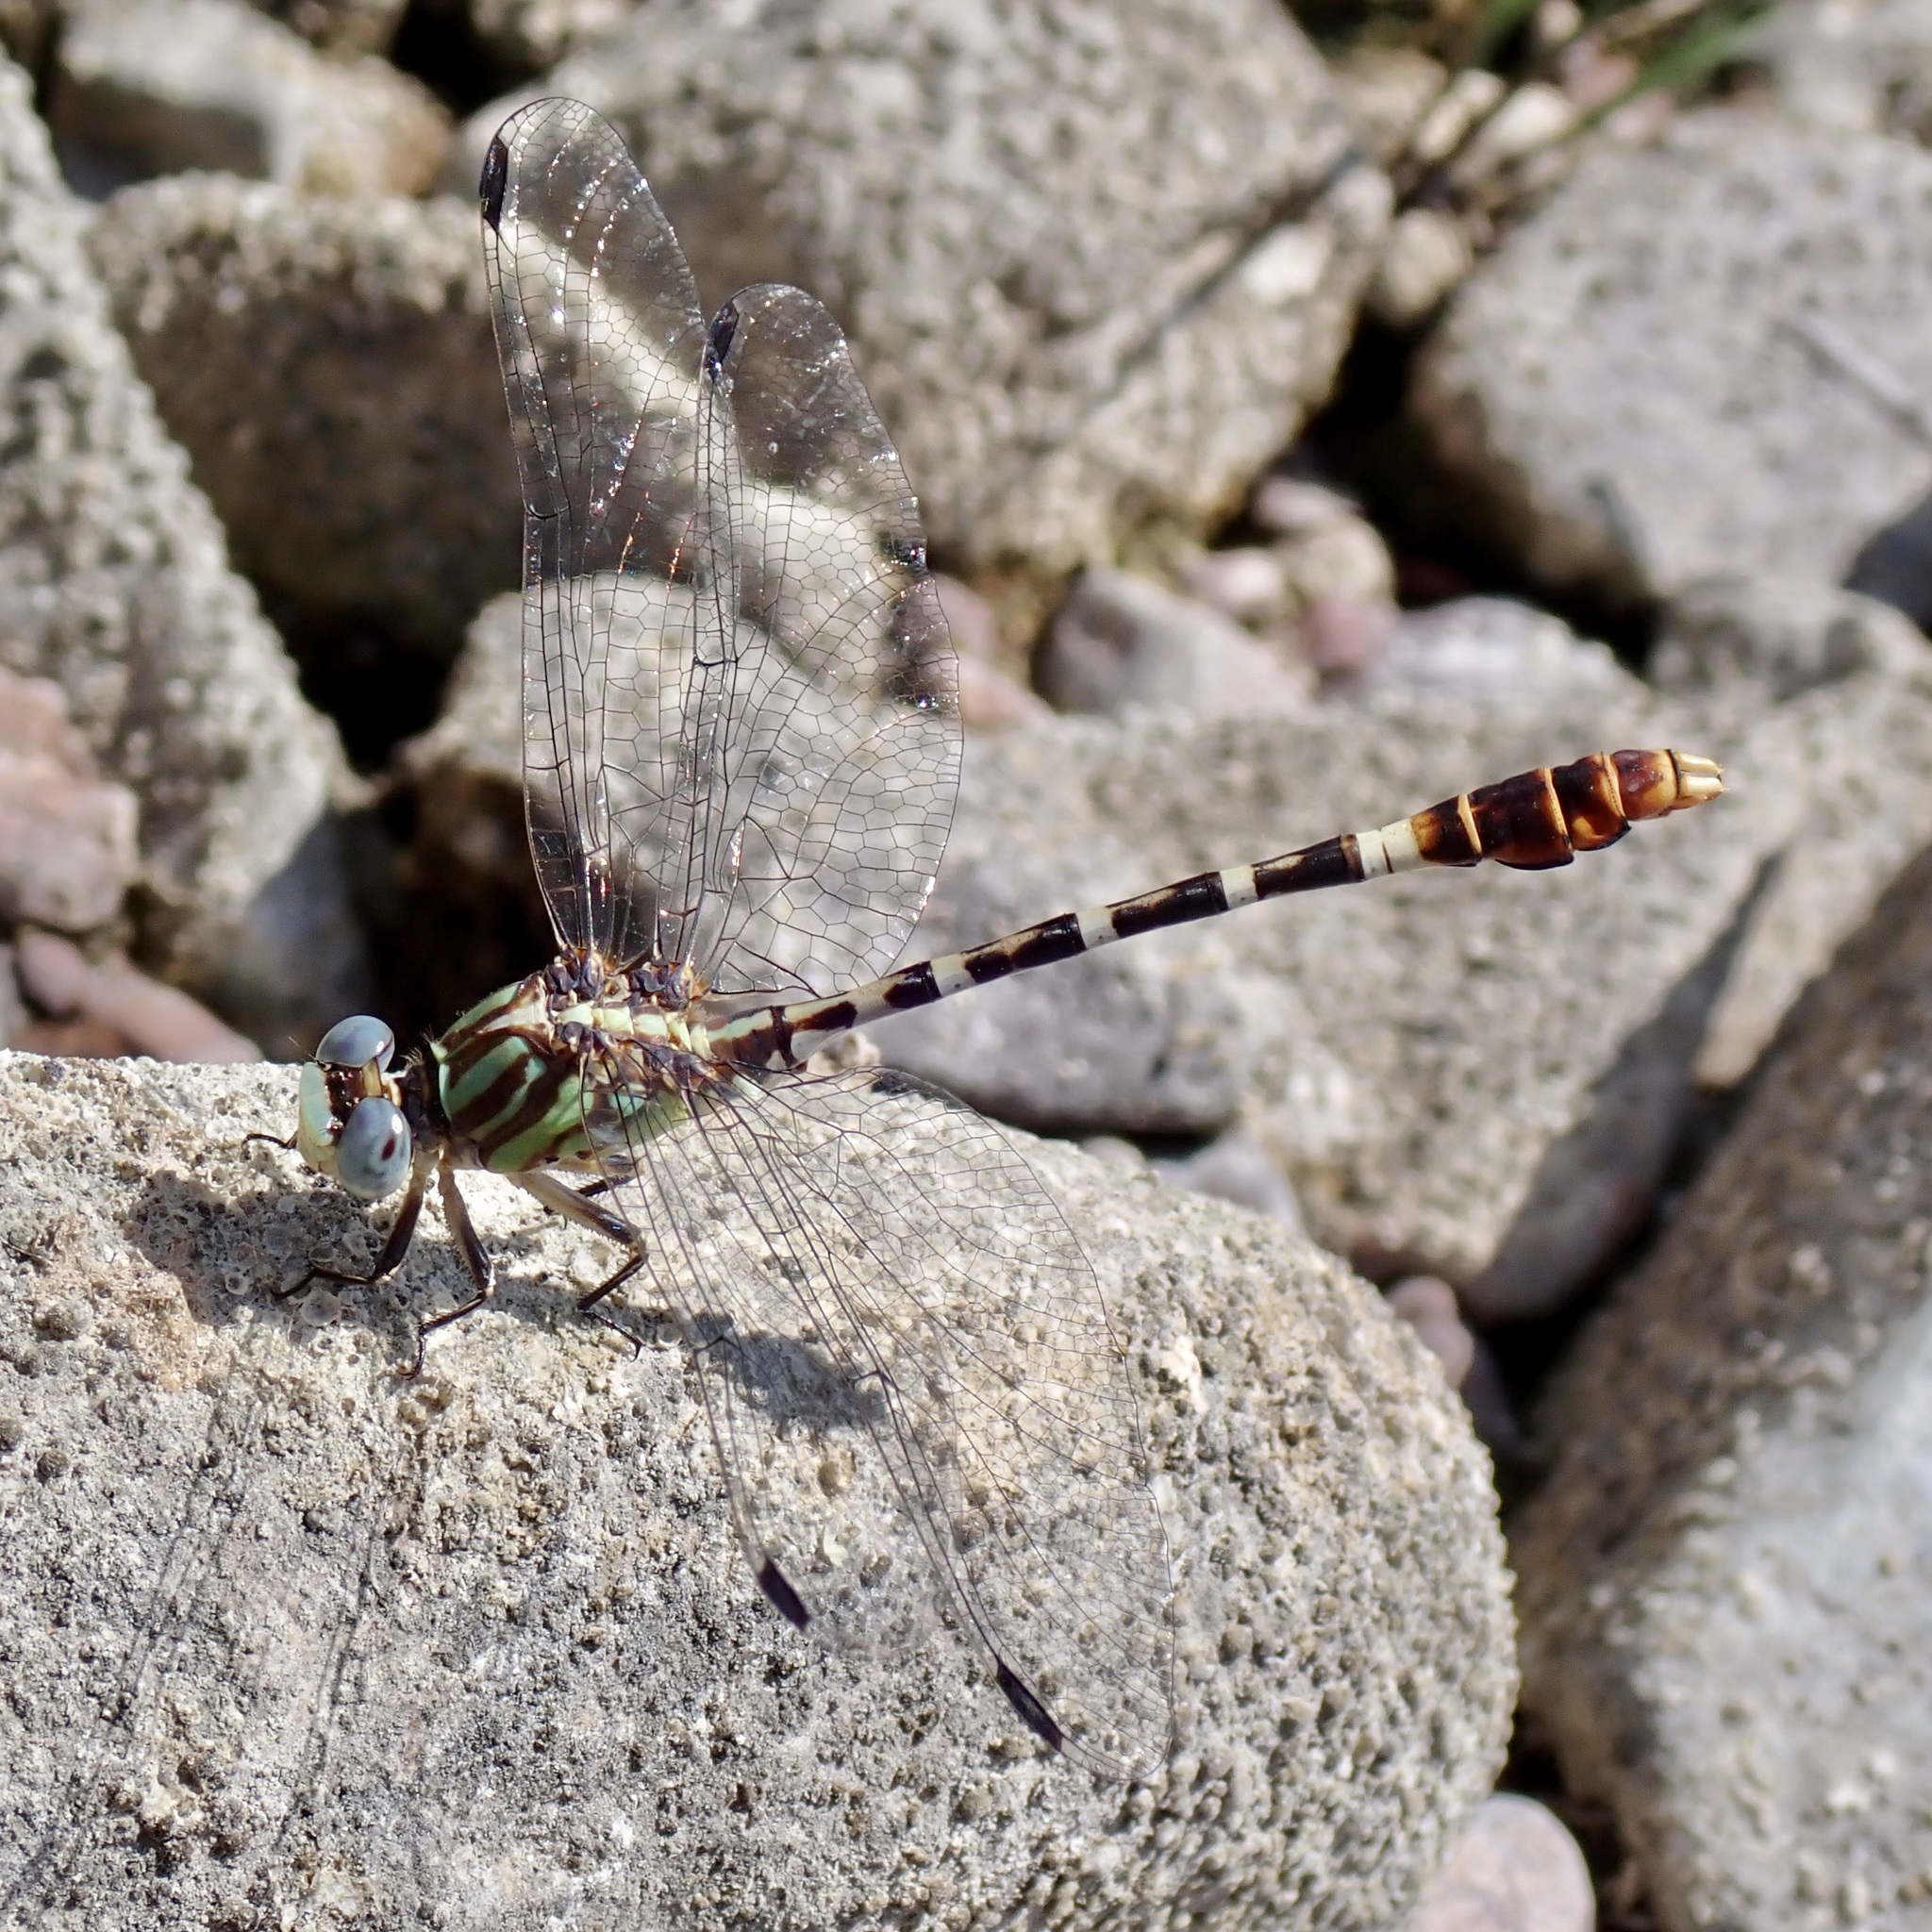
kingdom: Animalia
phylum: Arthropoda
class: Insecta
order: Odonata
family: Gomphidae
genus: Erpetogomphus
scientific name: Erpetogomphus lampropeltis
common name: Serpent ringtail
